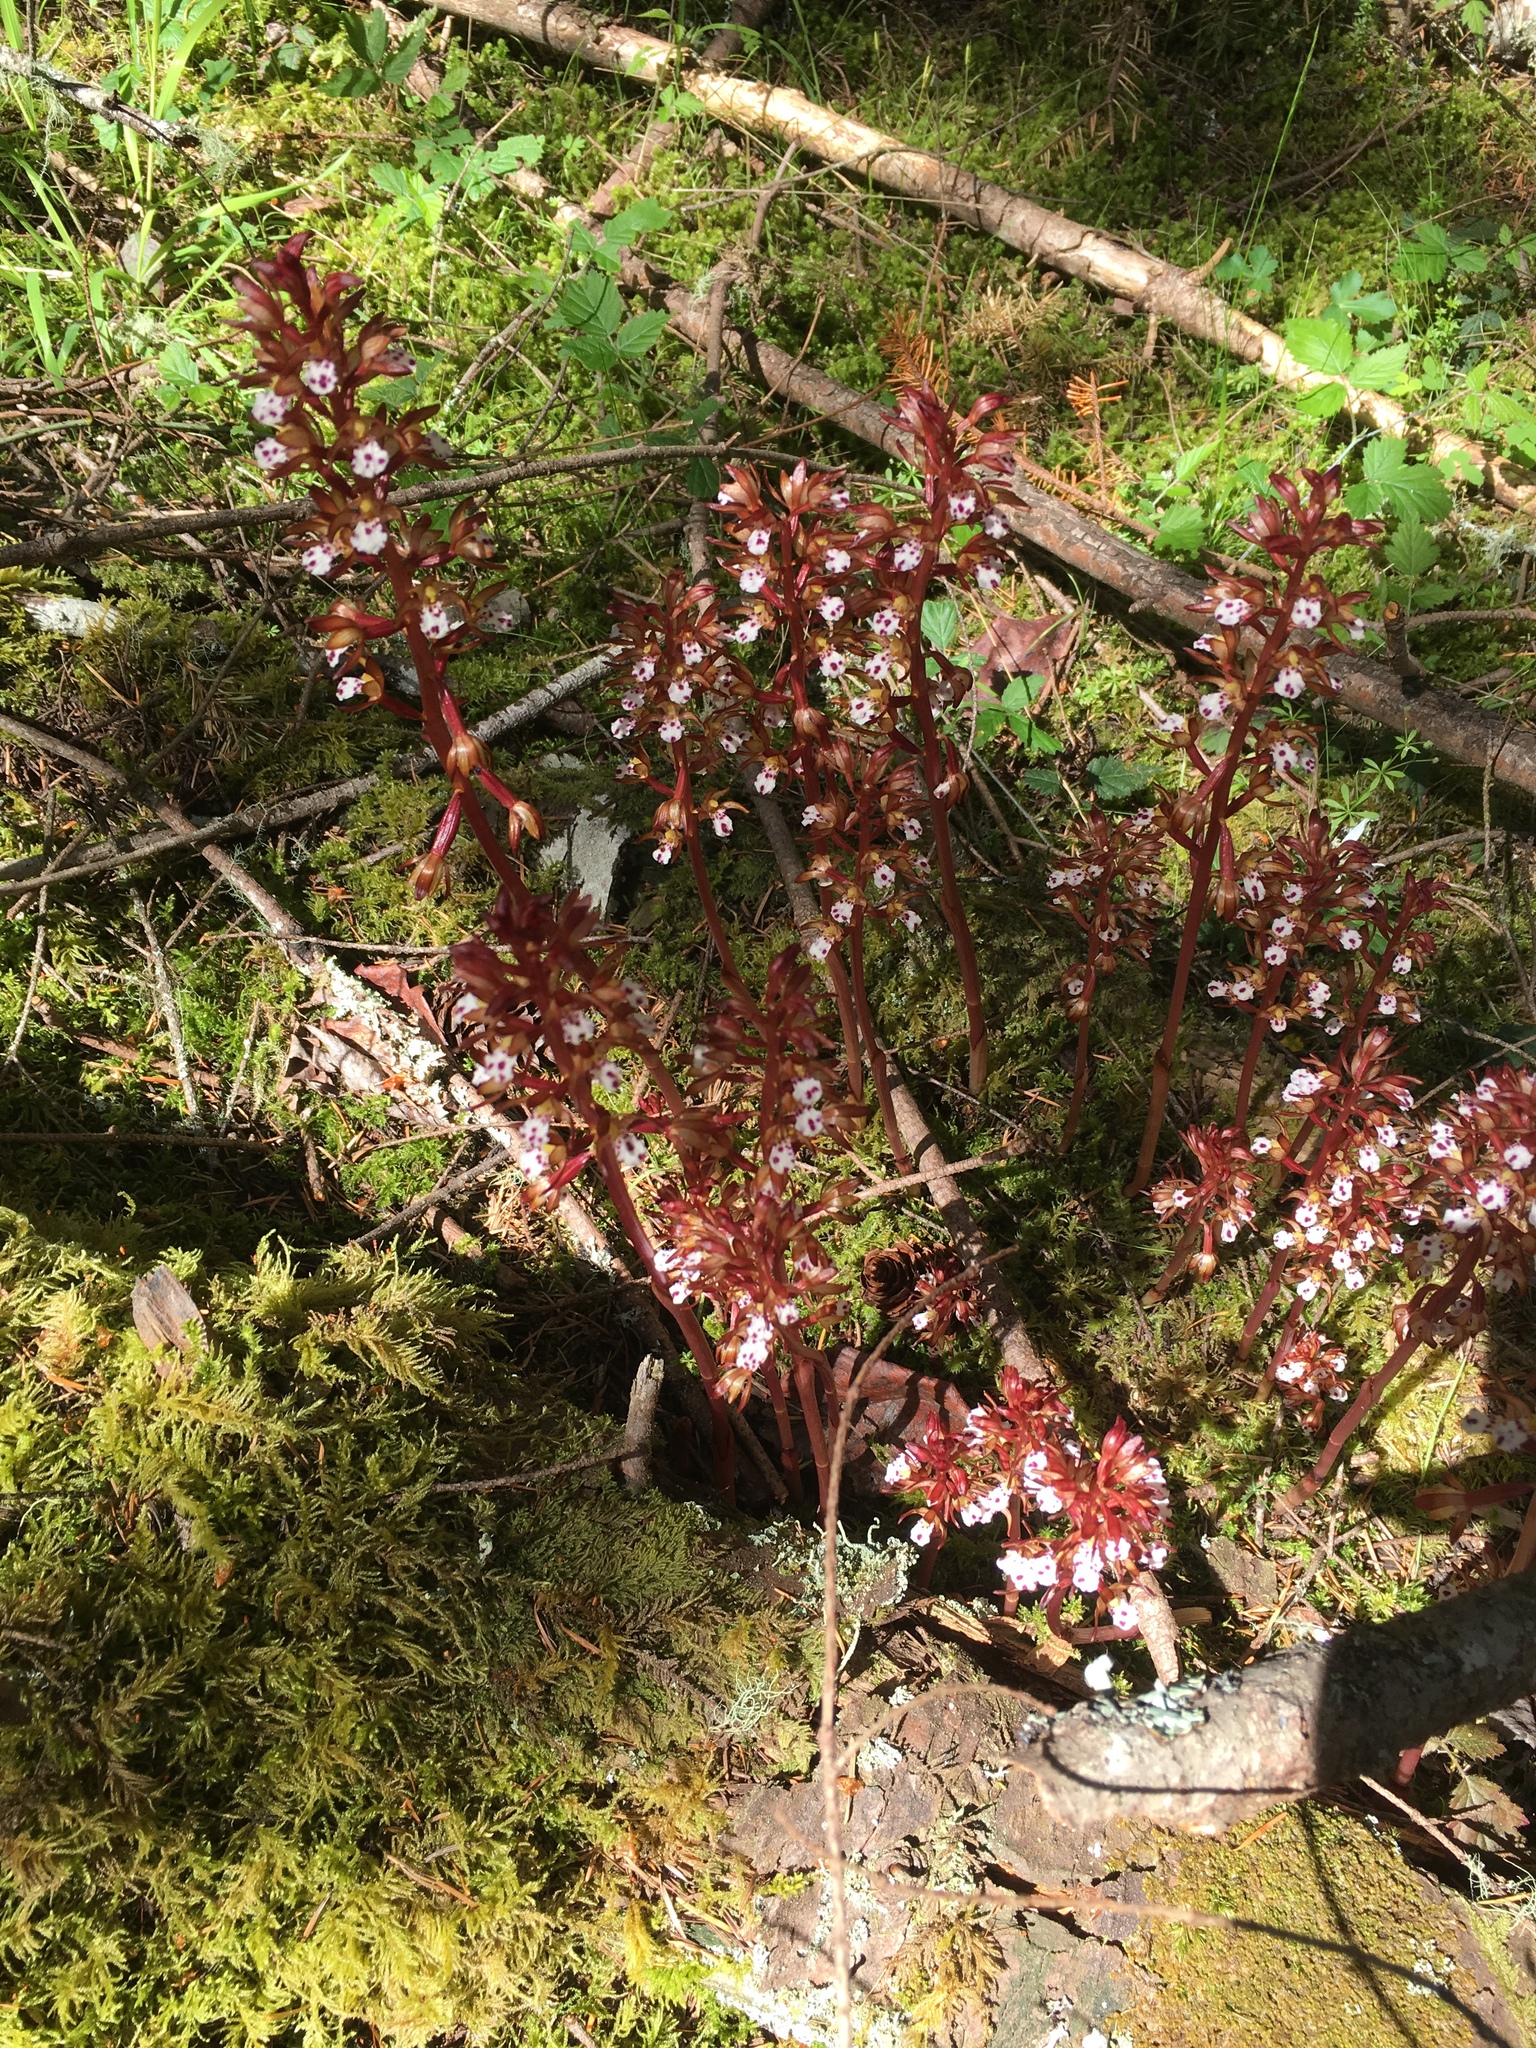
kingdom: Plantae
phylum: Tracheophyta
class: Liliopsida
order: Asparagales
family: Orchidaceae
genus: Corallorhiza
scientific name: Corallorhiza maculata
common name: Spotted coralroot
